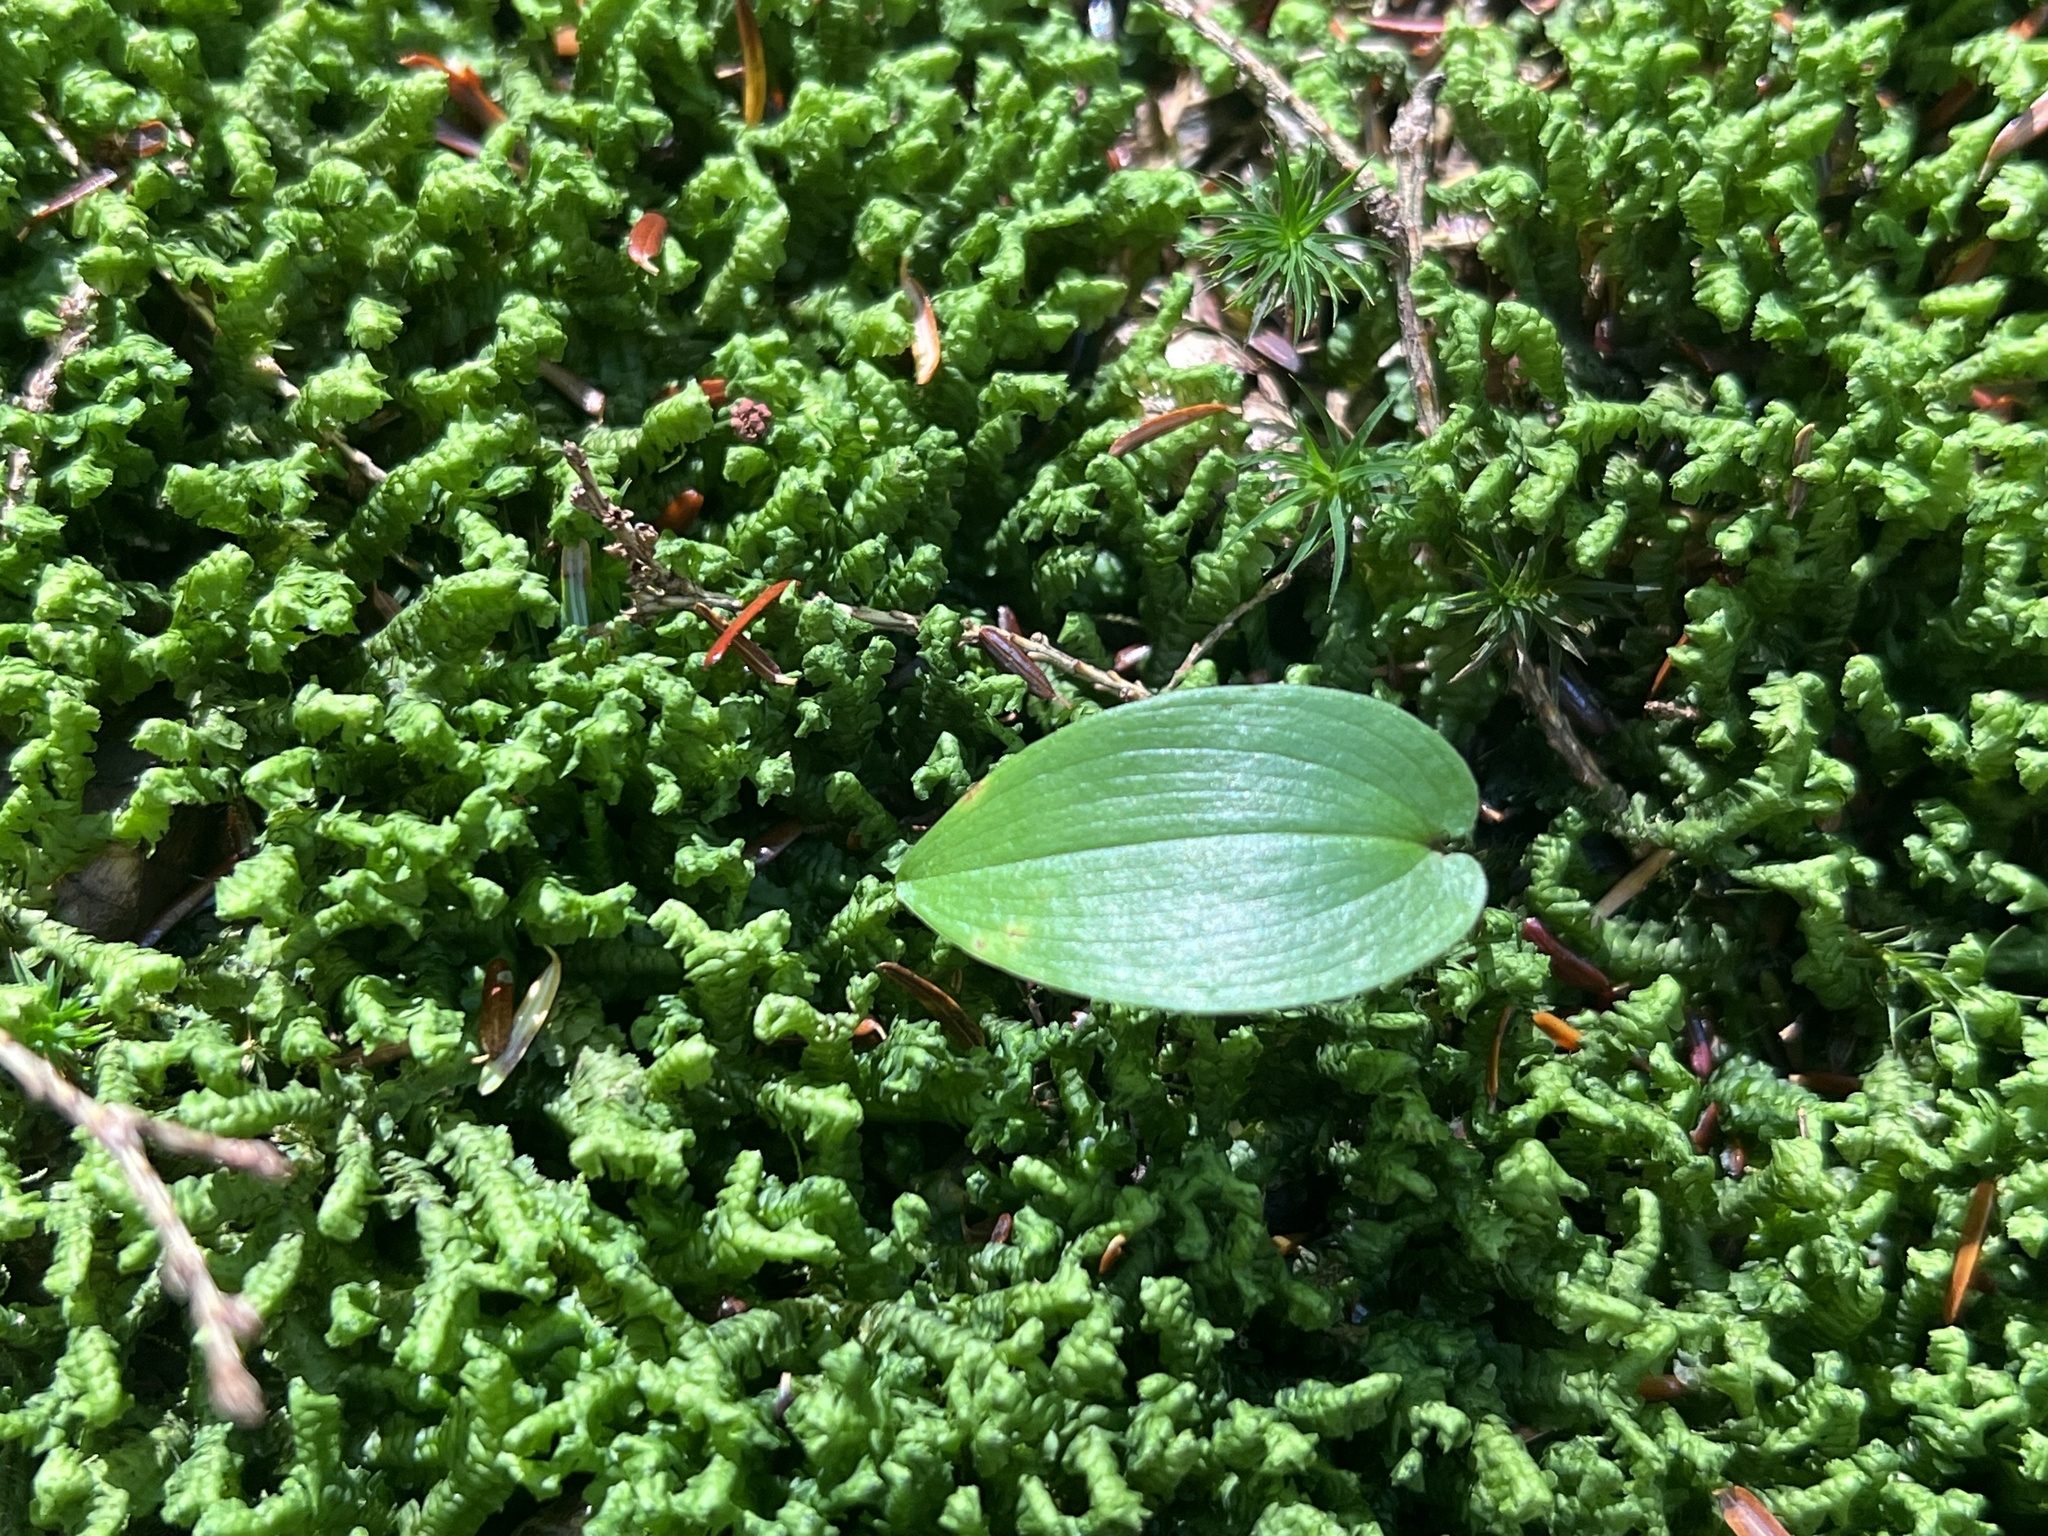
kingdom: Plantae
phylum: Tracheophyta
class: Liliopsida
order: Asparagales
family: Asparagaceae
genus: Maianthemum
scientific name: Maianthemum canadense
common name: False lily-of-the-valley
